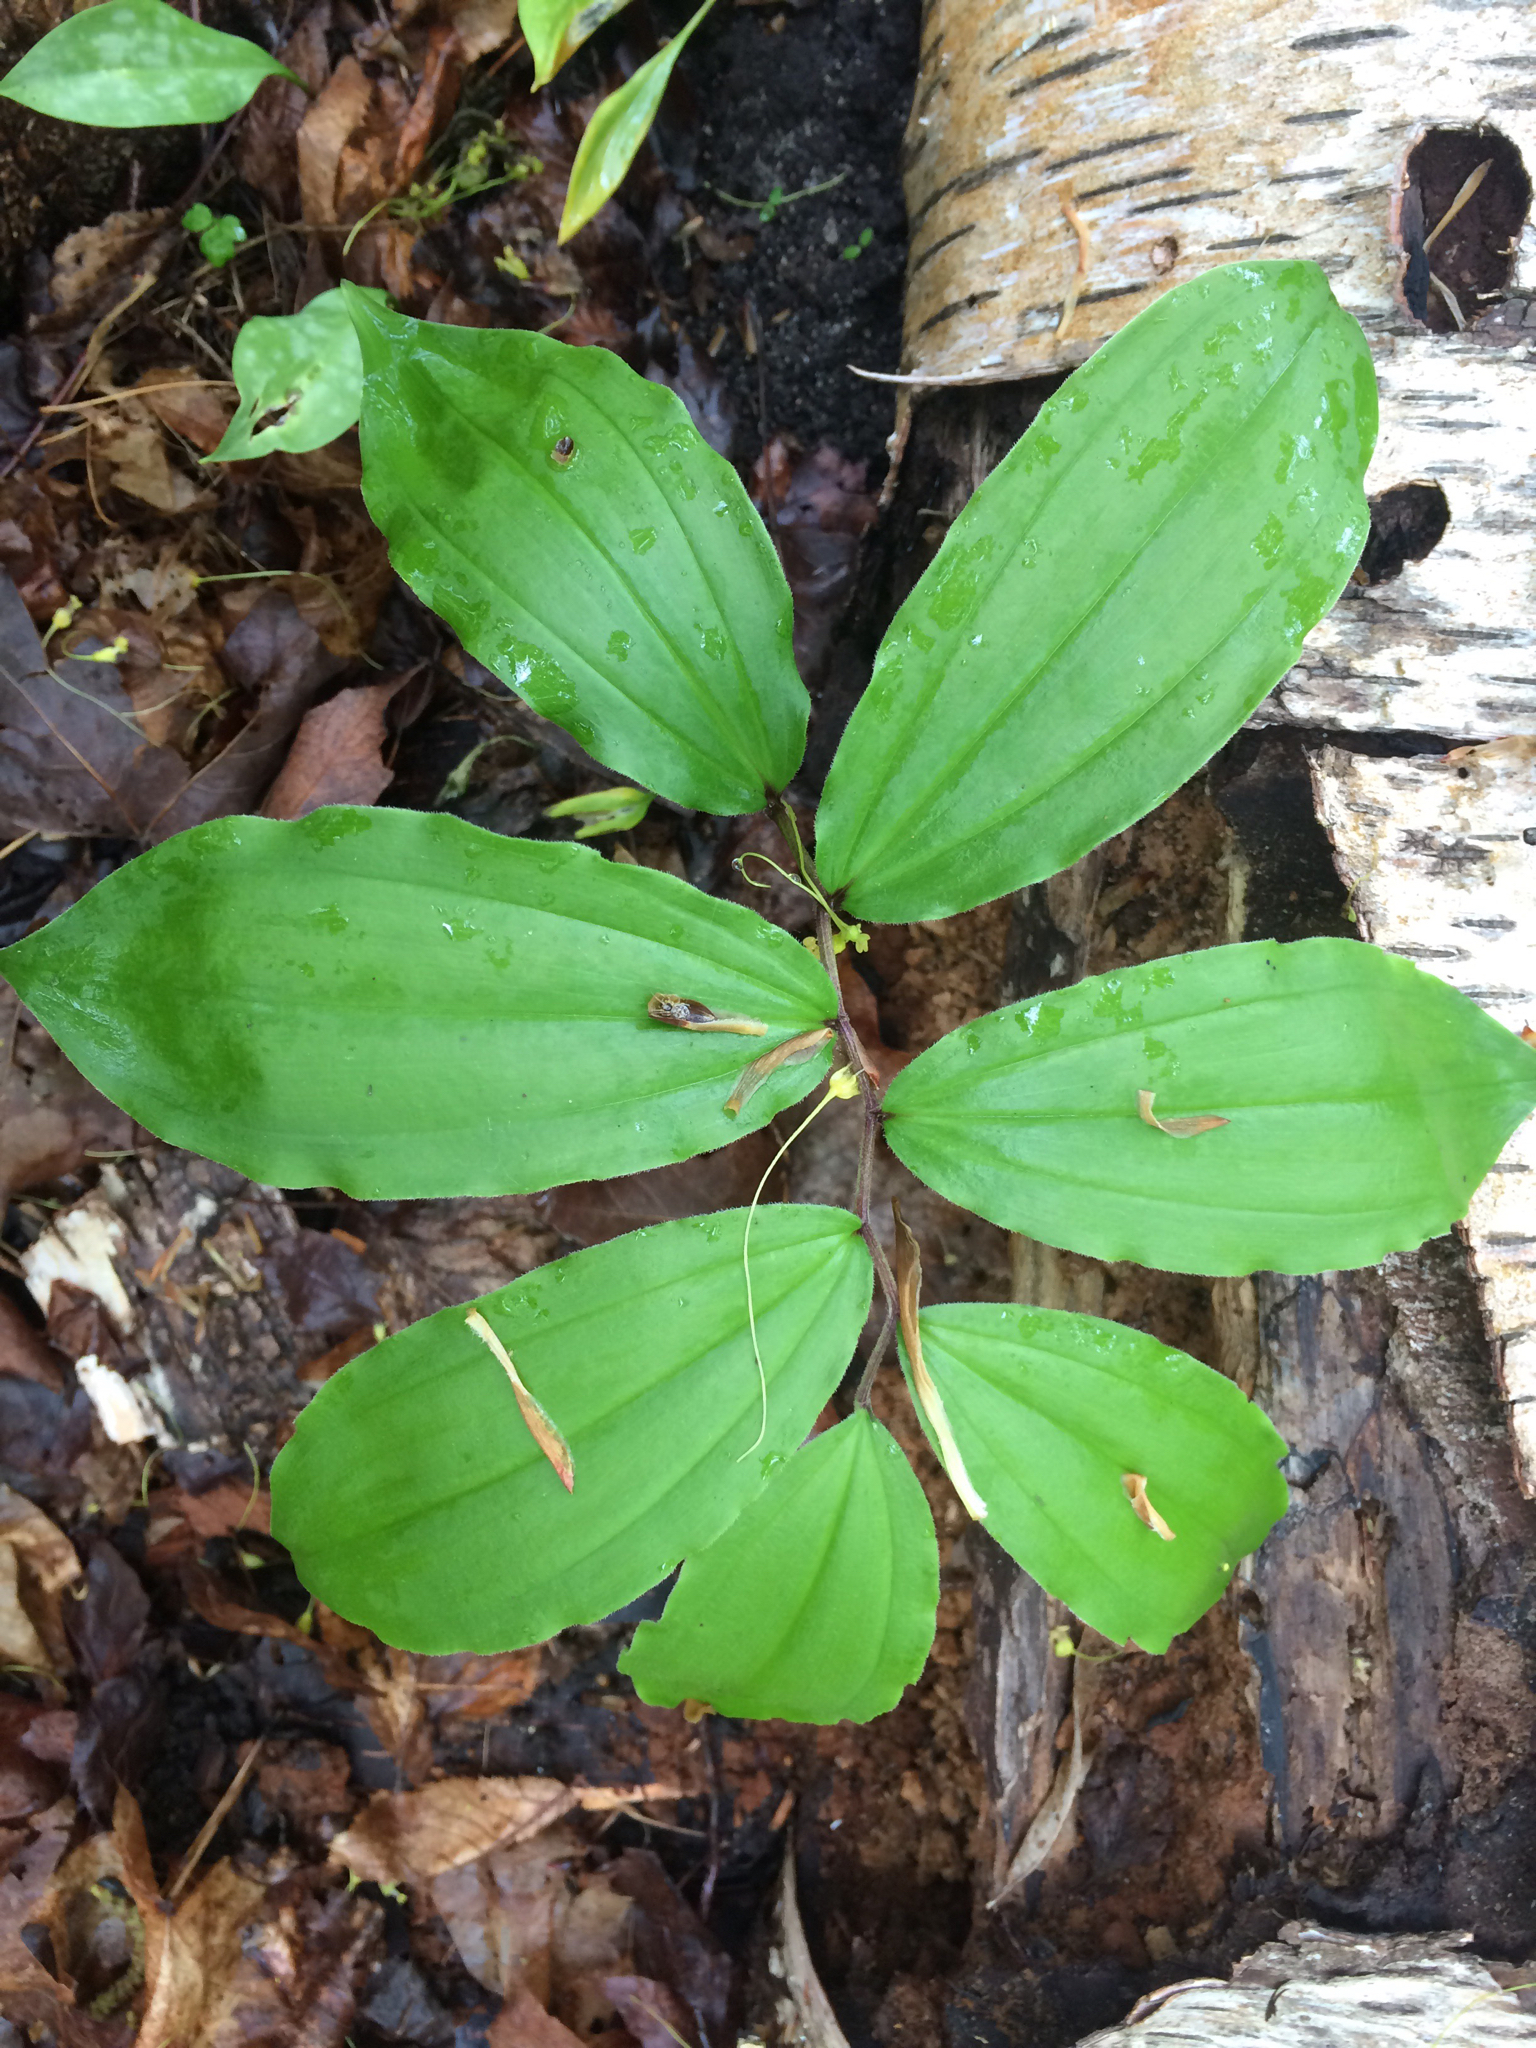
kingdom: Plantae
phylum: Tracheophyta
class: Liliopsida
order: Asparagales
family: Asparagaceae
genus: Maianthemum
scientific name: Maianthemum racemosum
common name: False spikenard
